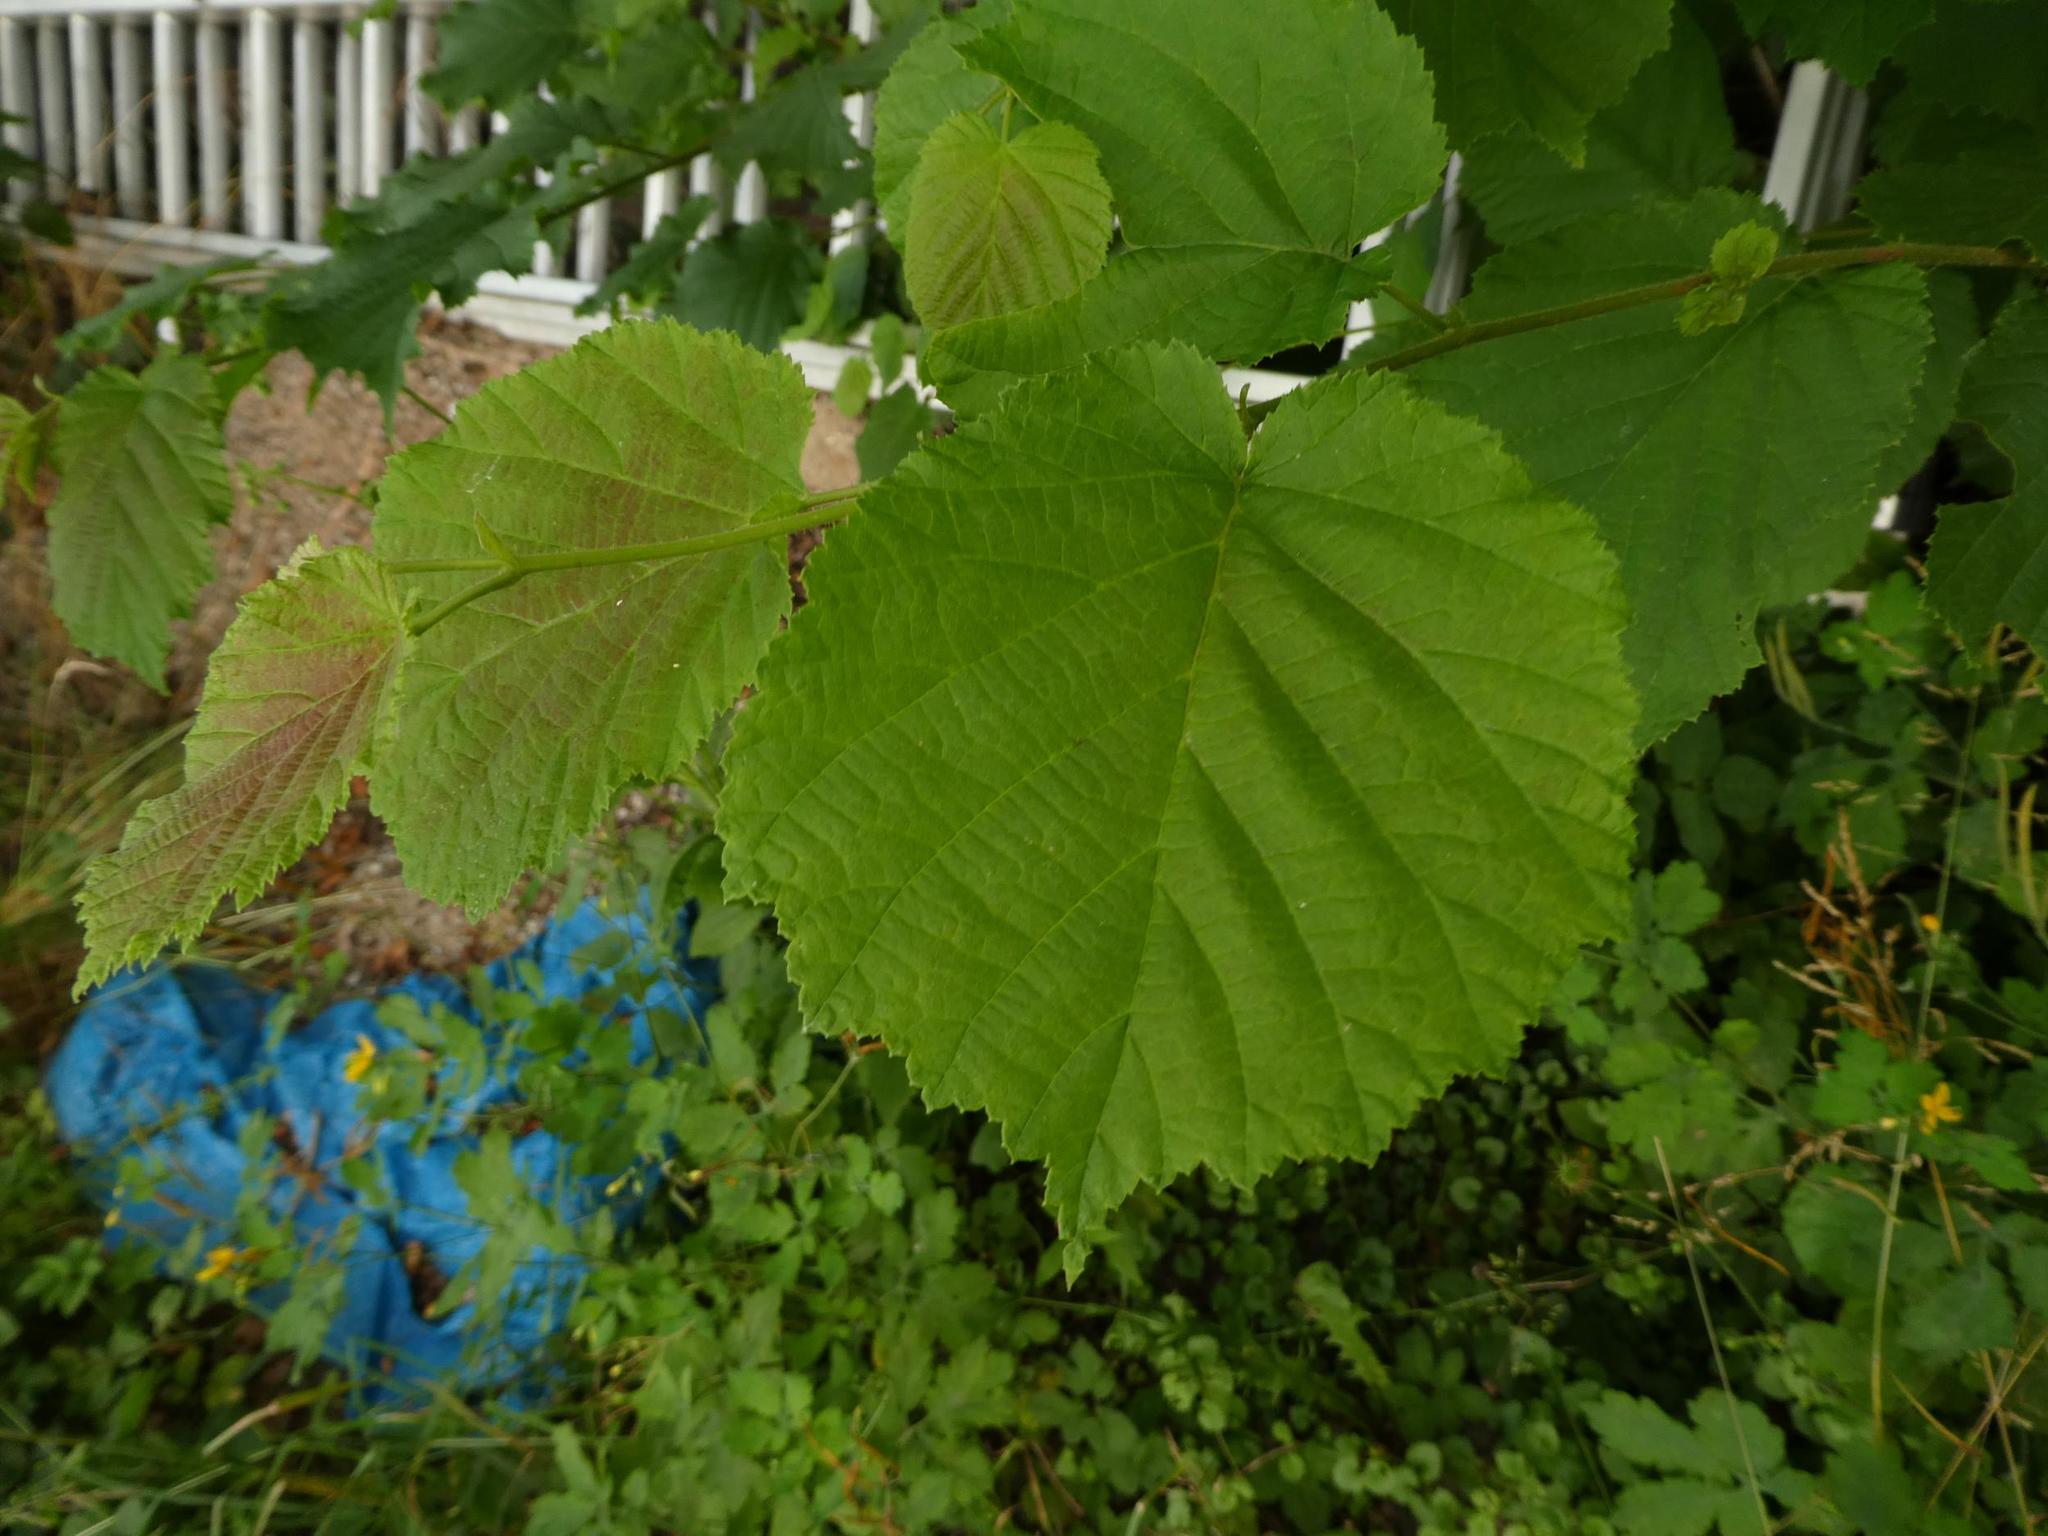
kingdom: Plantae
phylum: Tracheophyta
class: Magnoliopsida
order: Fagales
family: Betulaceae
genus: Corylus
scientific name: Corylus avellana
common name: European hazel
